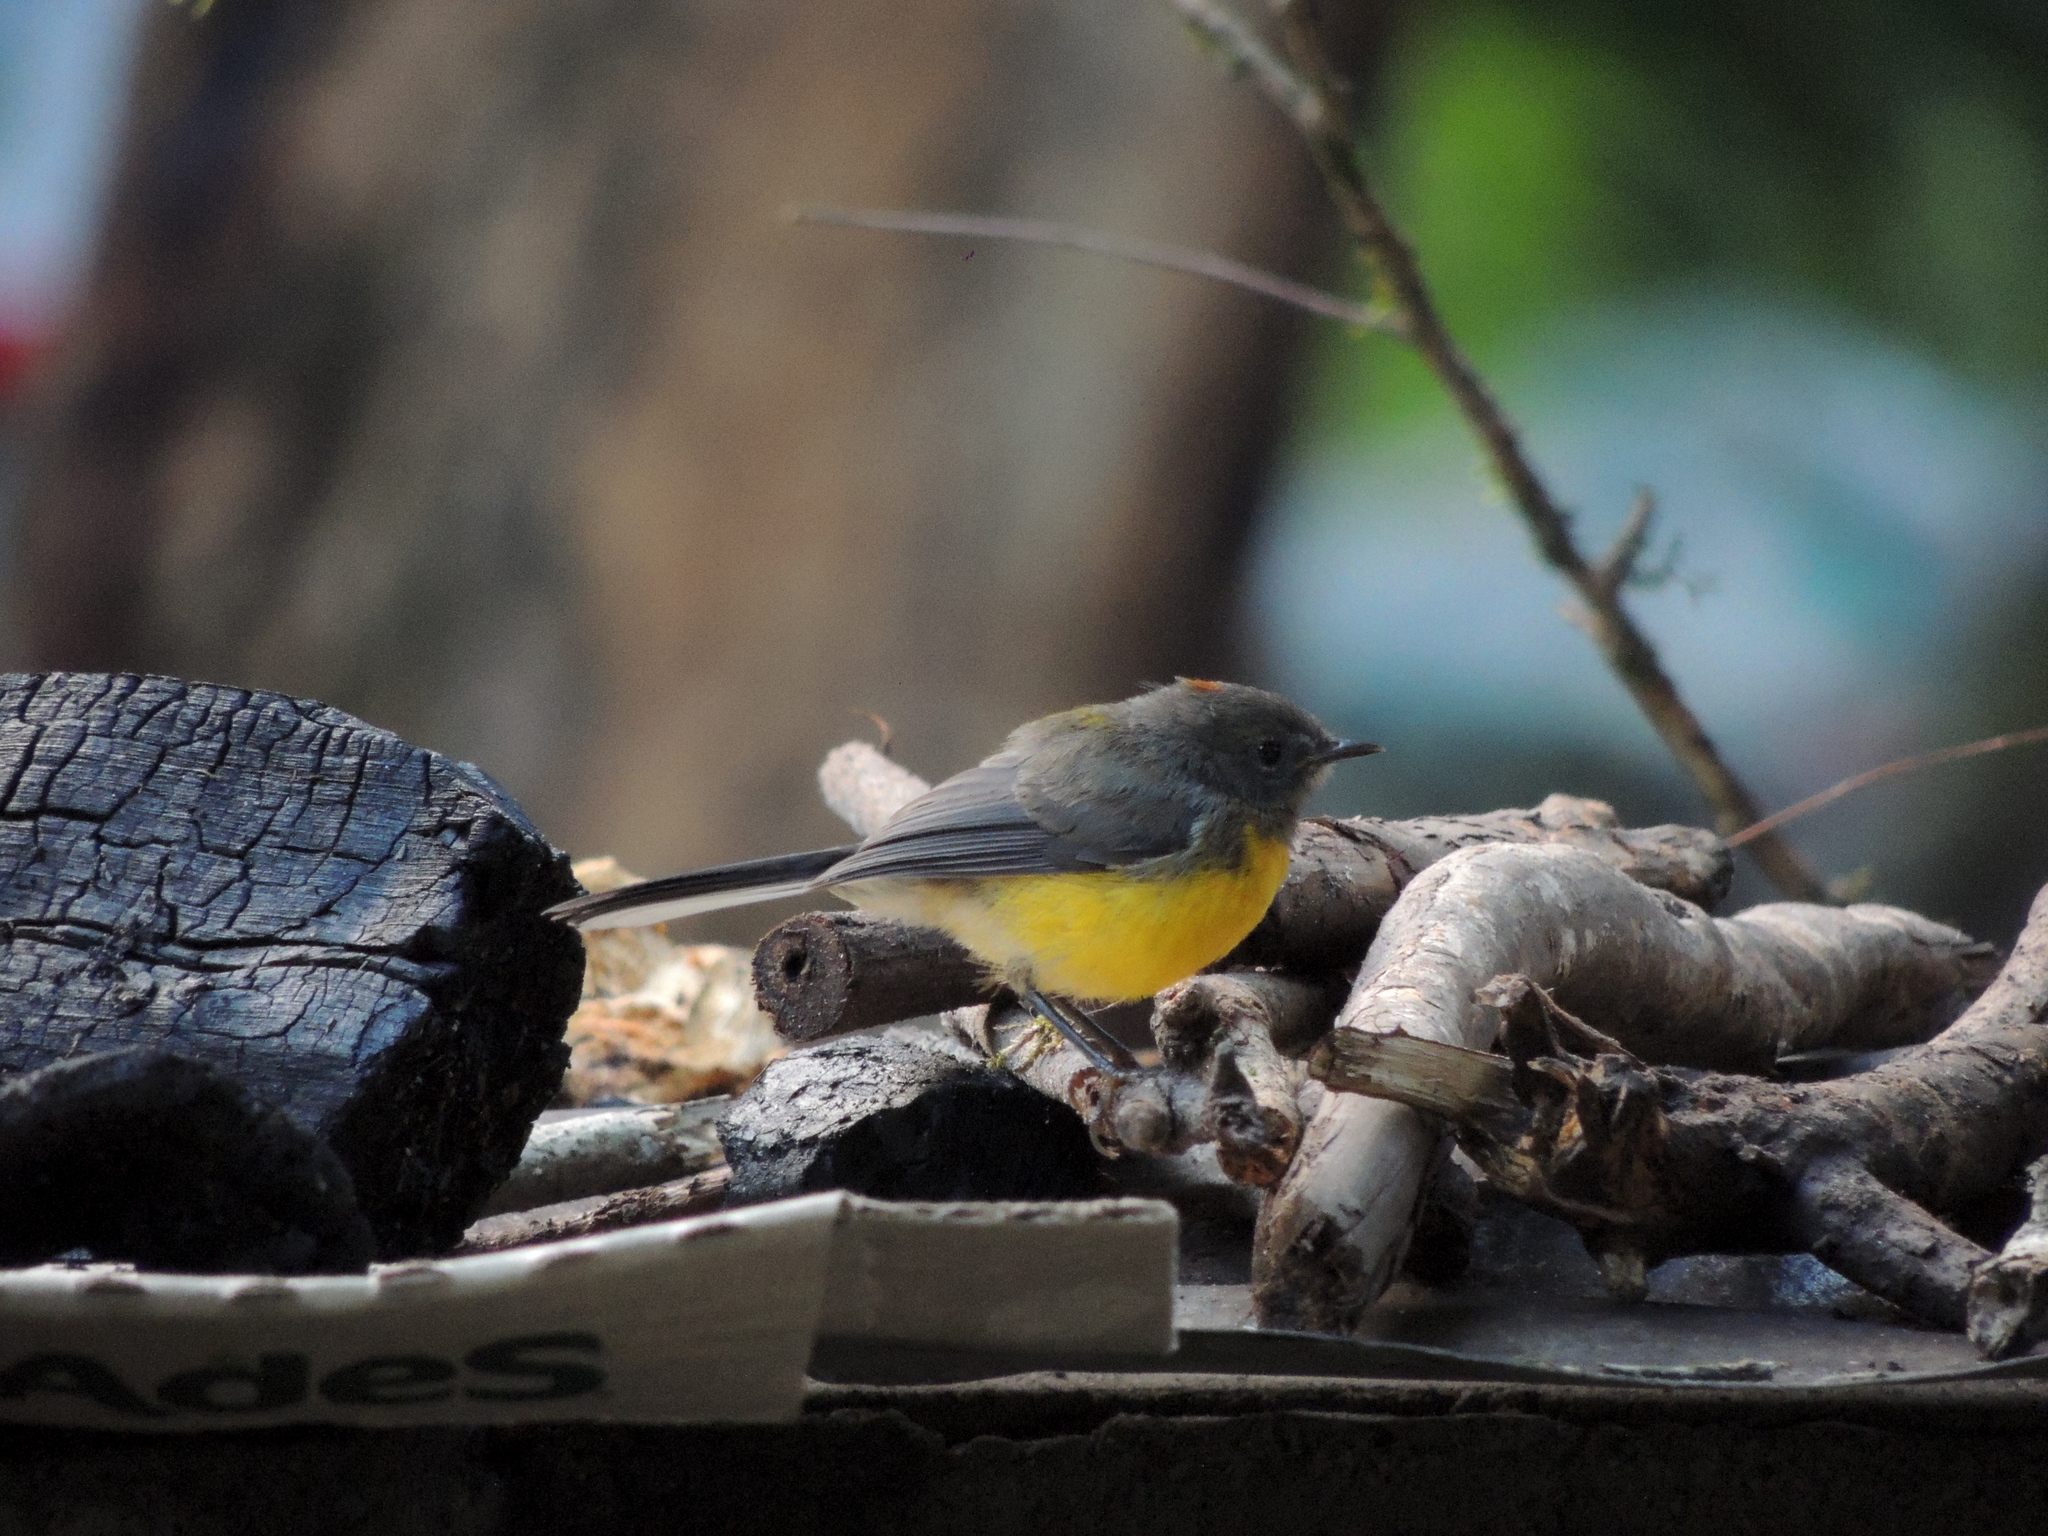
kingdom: Animalia
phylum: Chordata
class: Aves
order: Passeriformes
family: Parulidae
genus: Myioborus
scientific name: Myioborus brunniceps
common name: Brown-capped whitestart
